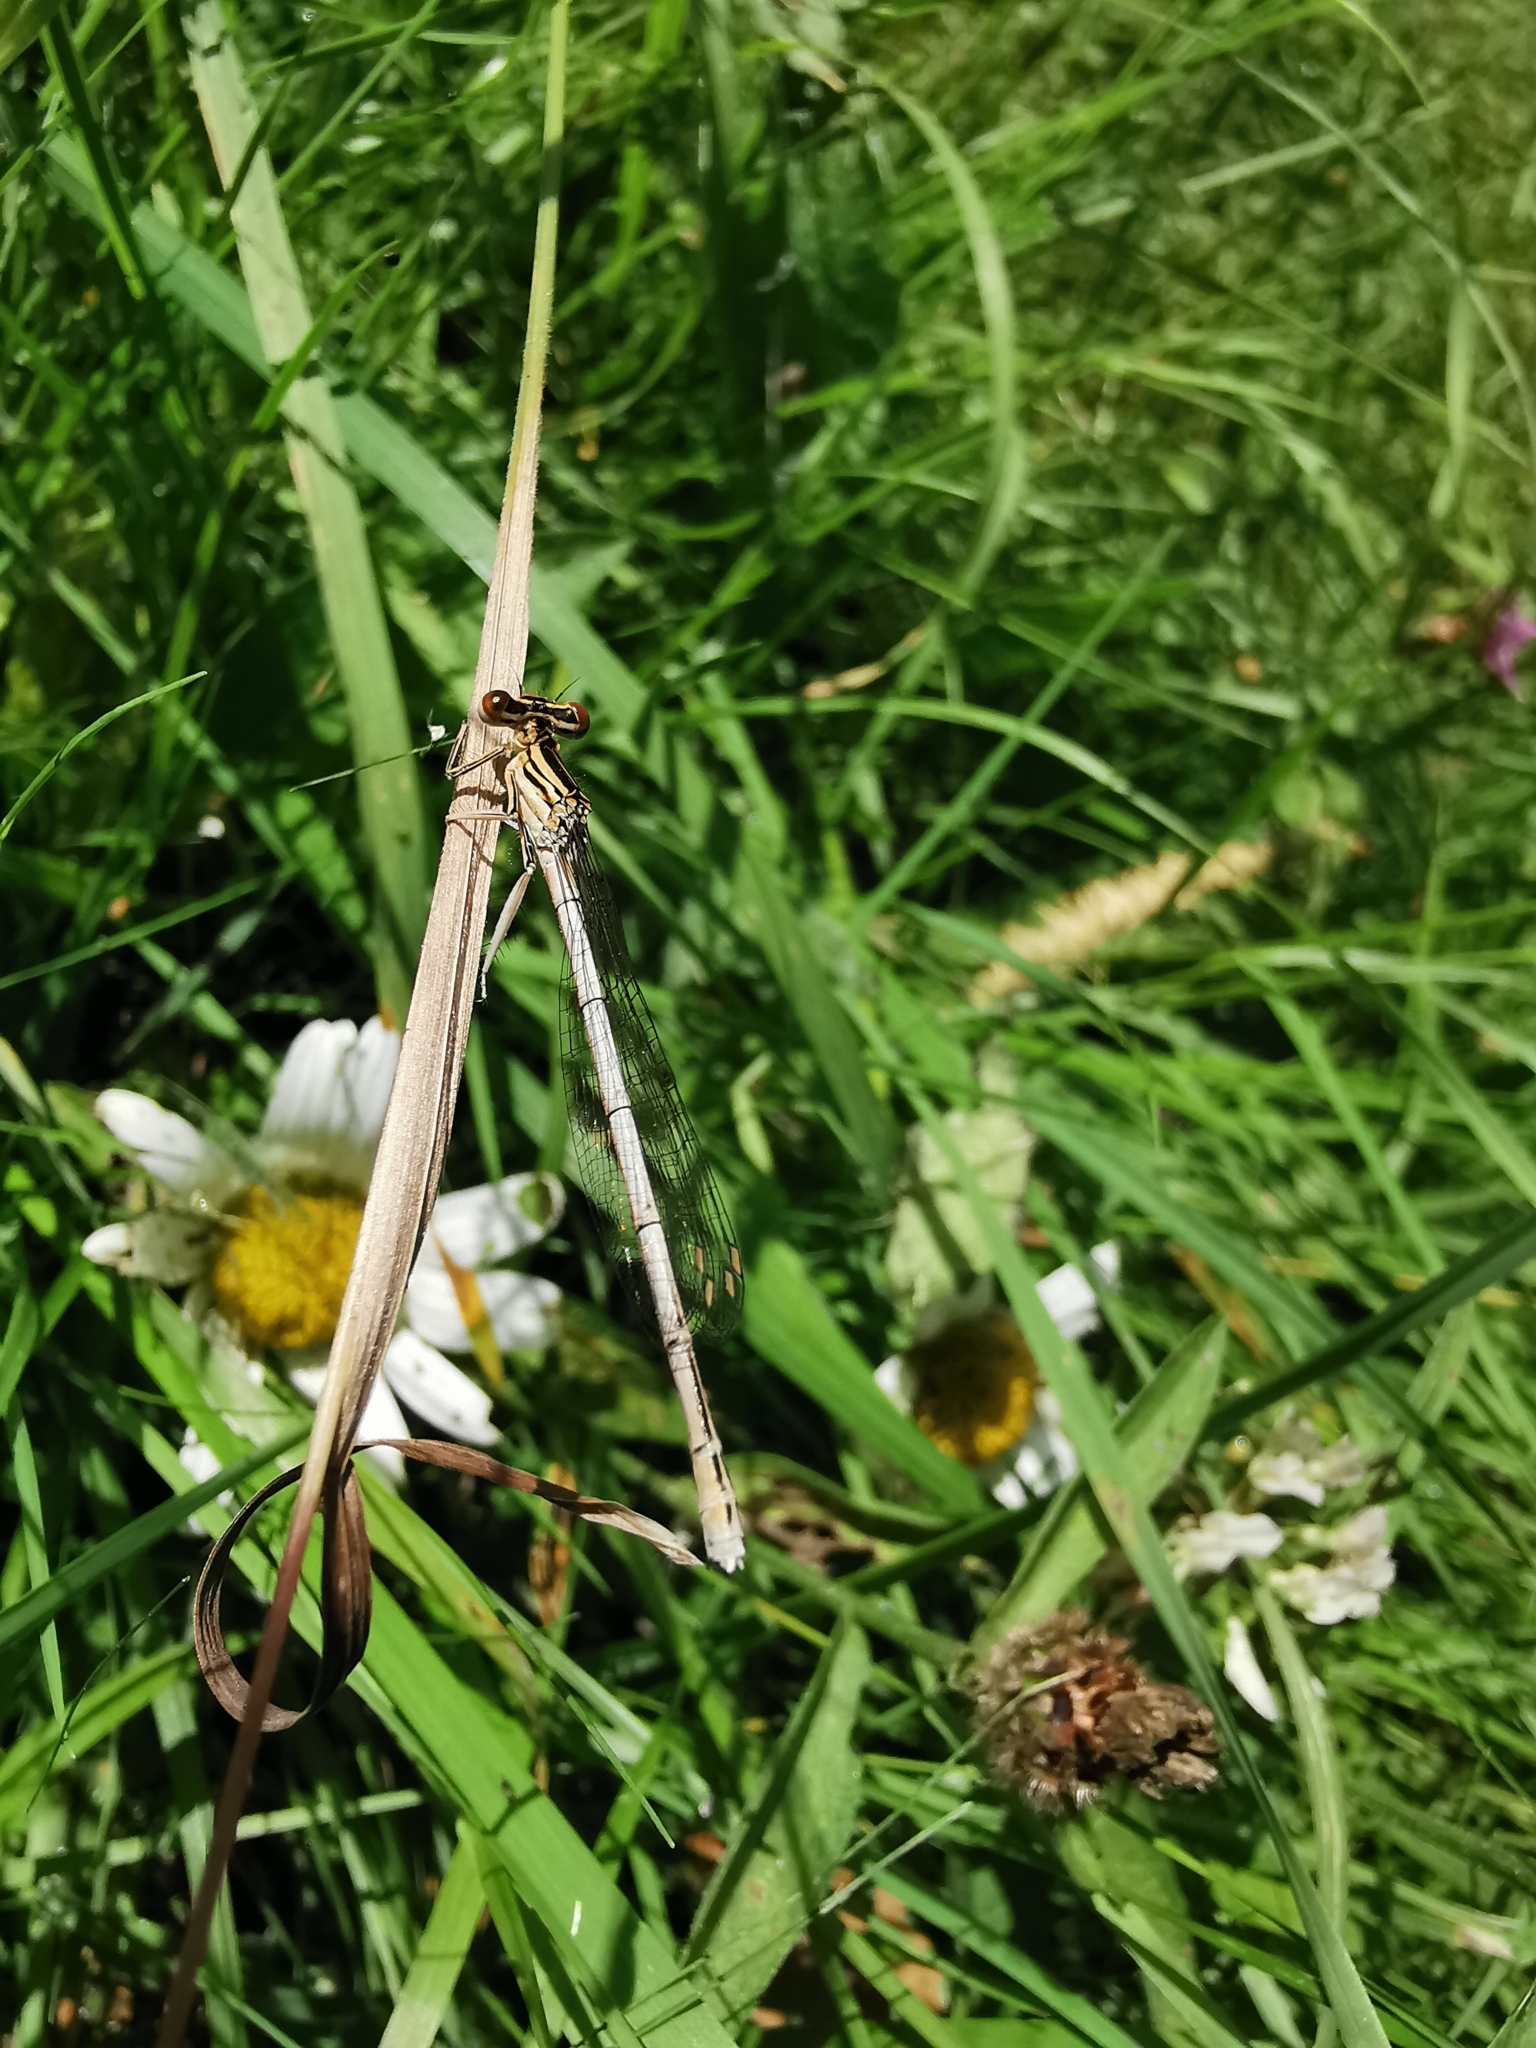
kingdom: Animalia
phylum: Arthropoda
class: Insecta
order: Odonata
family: Platycnemididae
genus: Platycnemis
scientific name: Platycnemis pennipes
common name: White-legged damselfly
